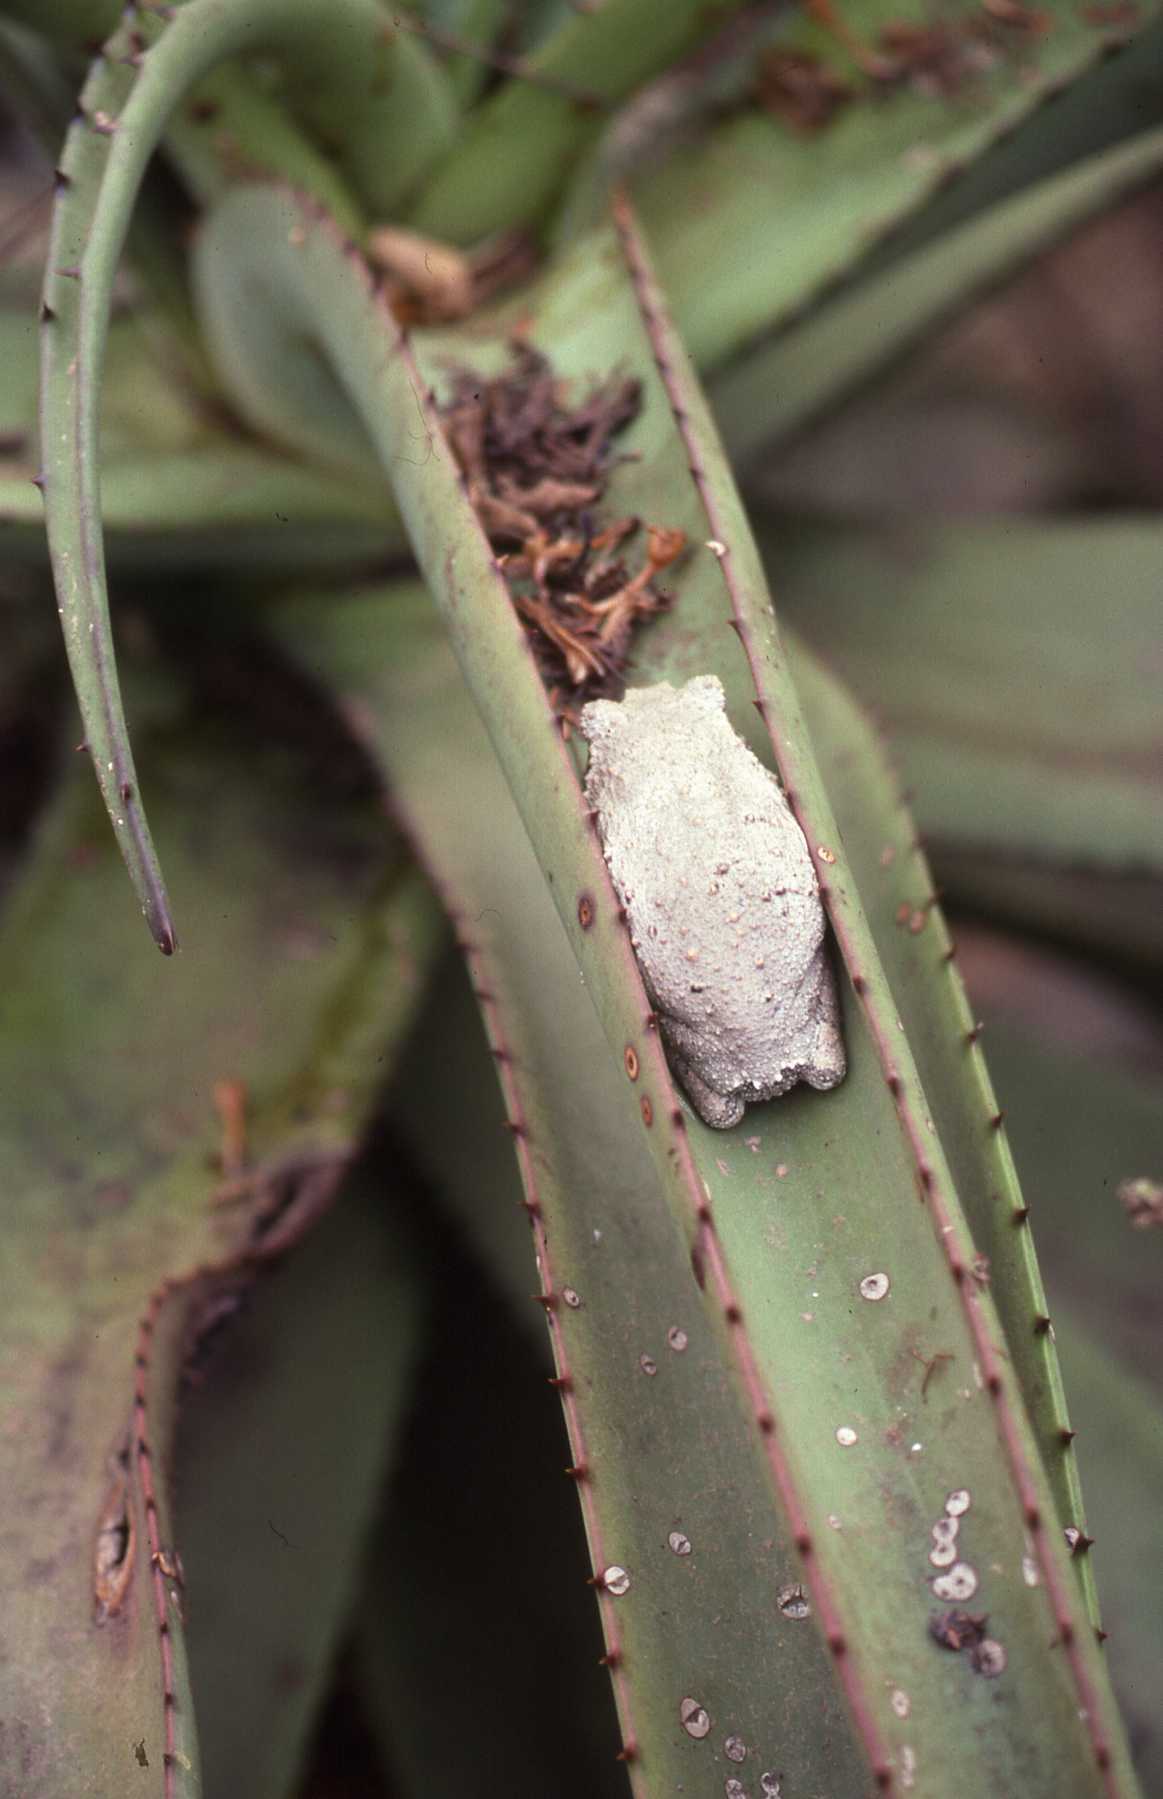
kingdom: Animalia
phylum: Chordata
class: Amphibia
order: Anura
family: Rhacophoridae
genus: Chiromantis
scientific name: Chiromantis xerampelina
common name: African gray treefrog
